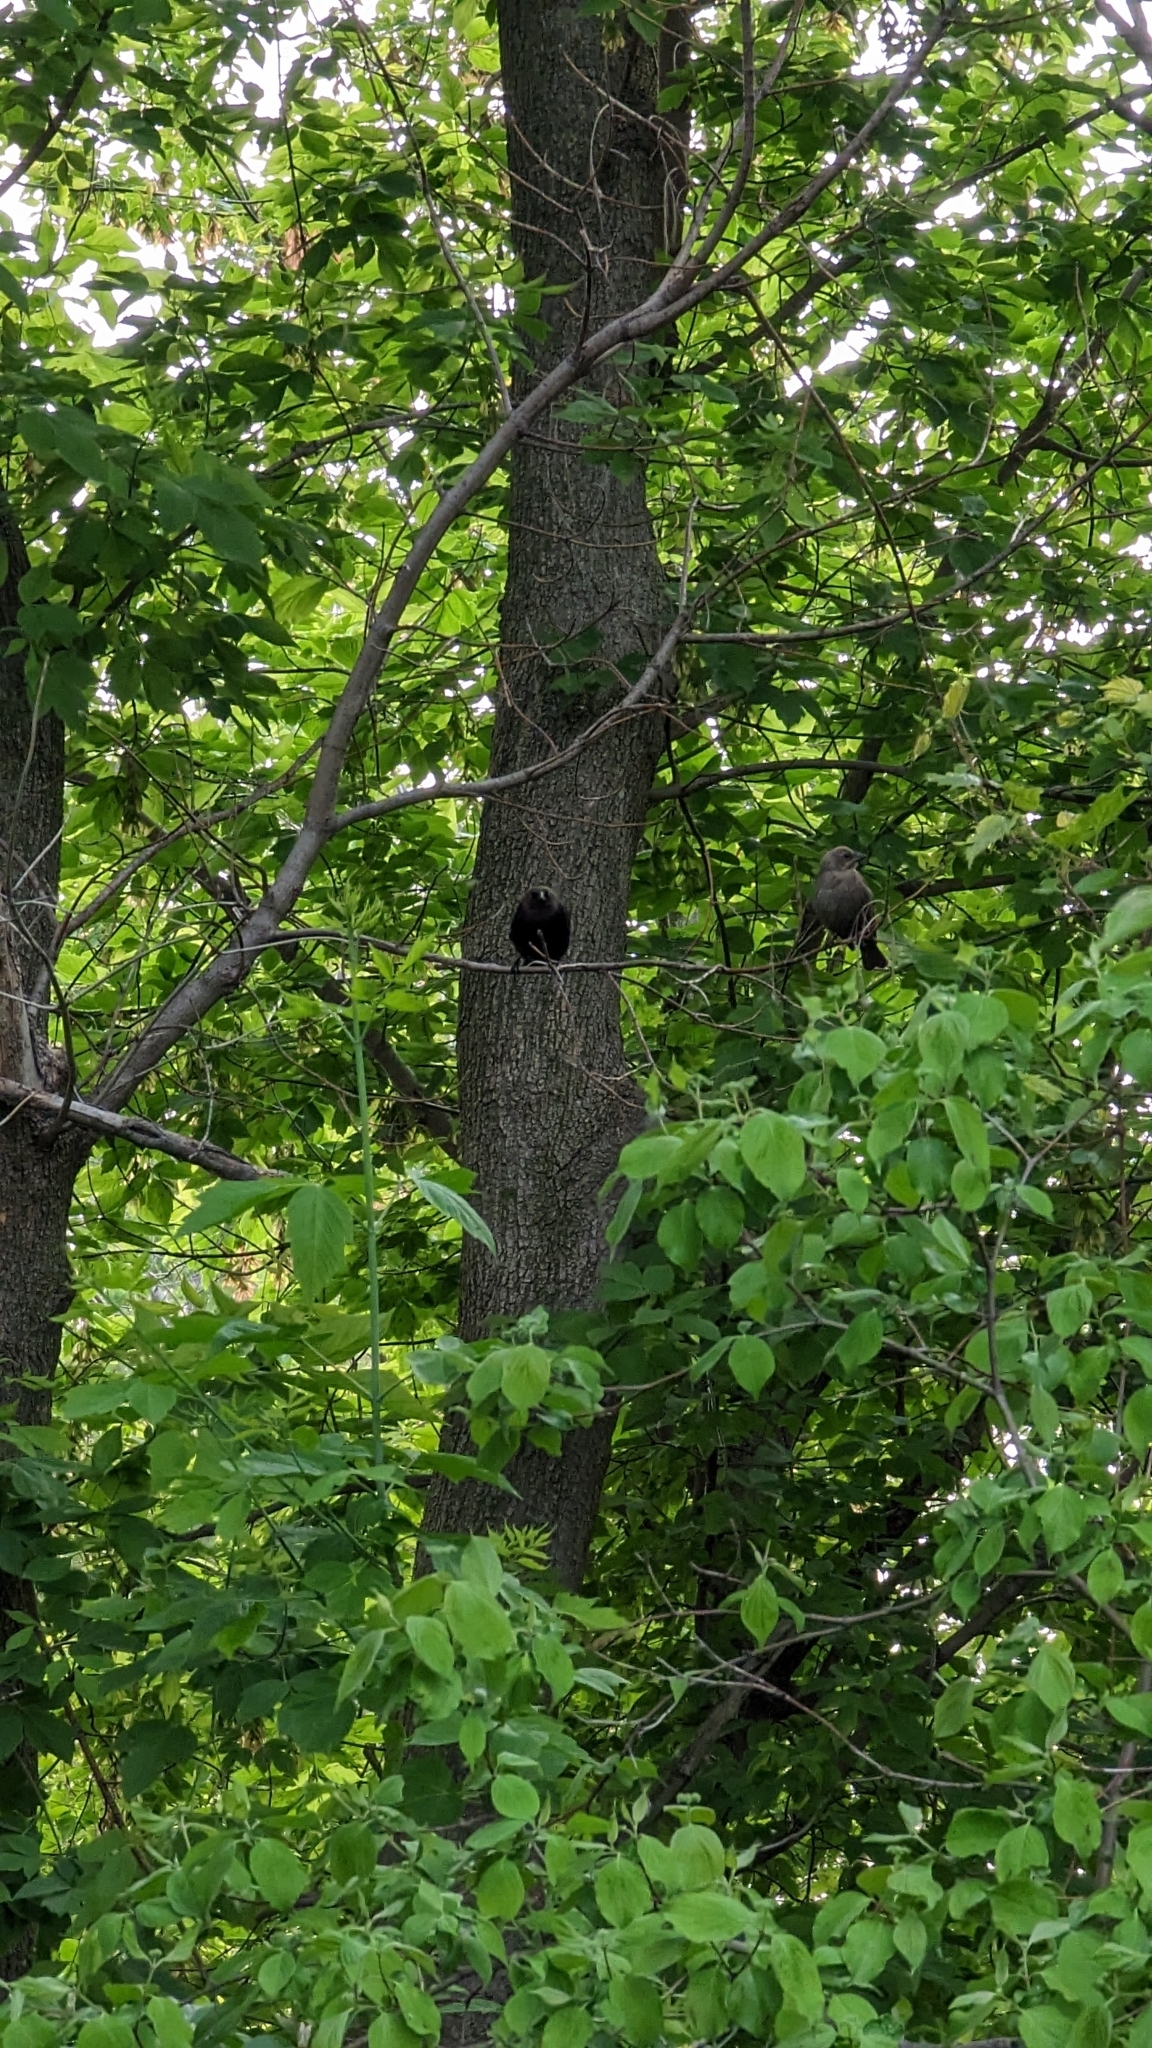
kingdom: Animalia
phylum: Chordata
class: Aves
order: Passeriformes
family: Icteridae
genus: Molothrus
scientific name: Molothrus ater
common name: Brown-headed cowbird
